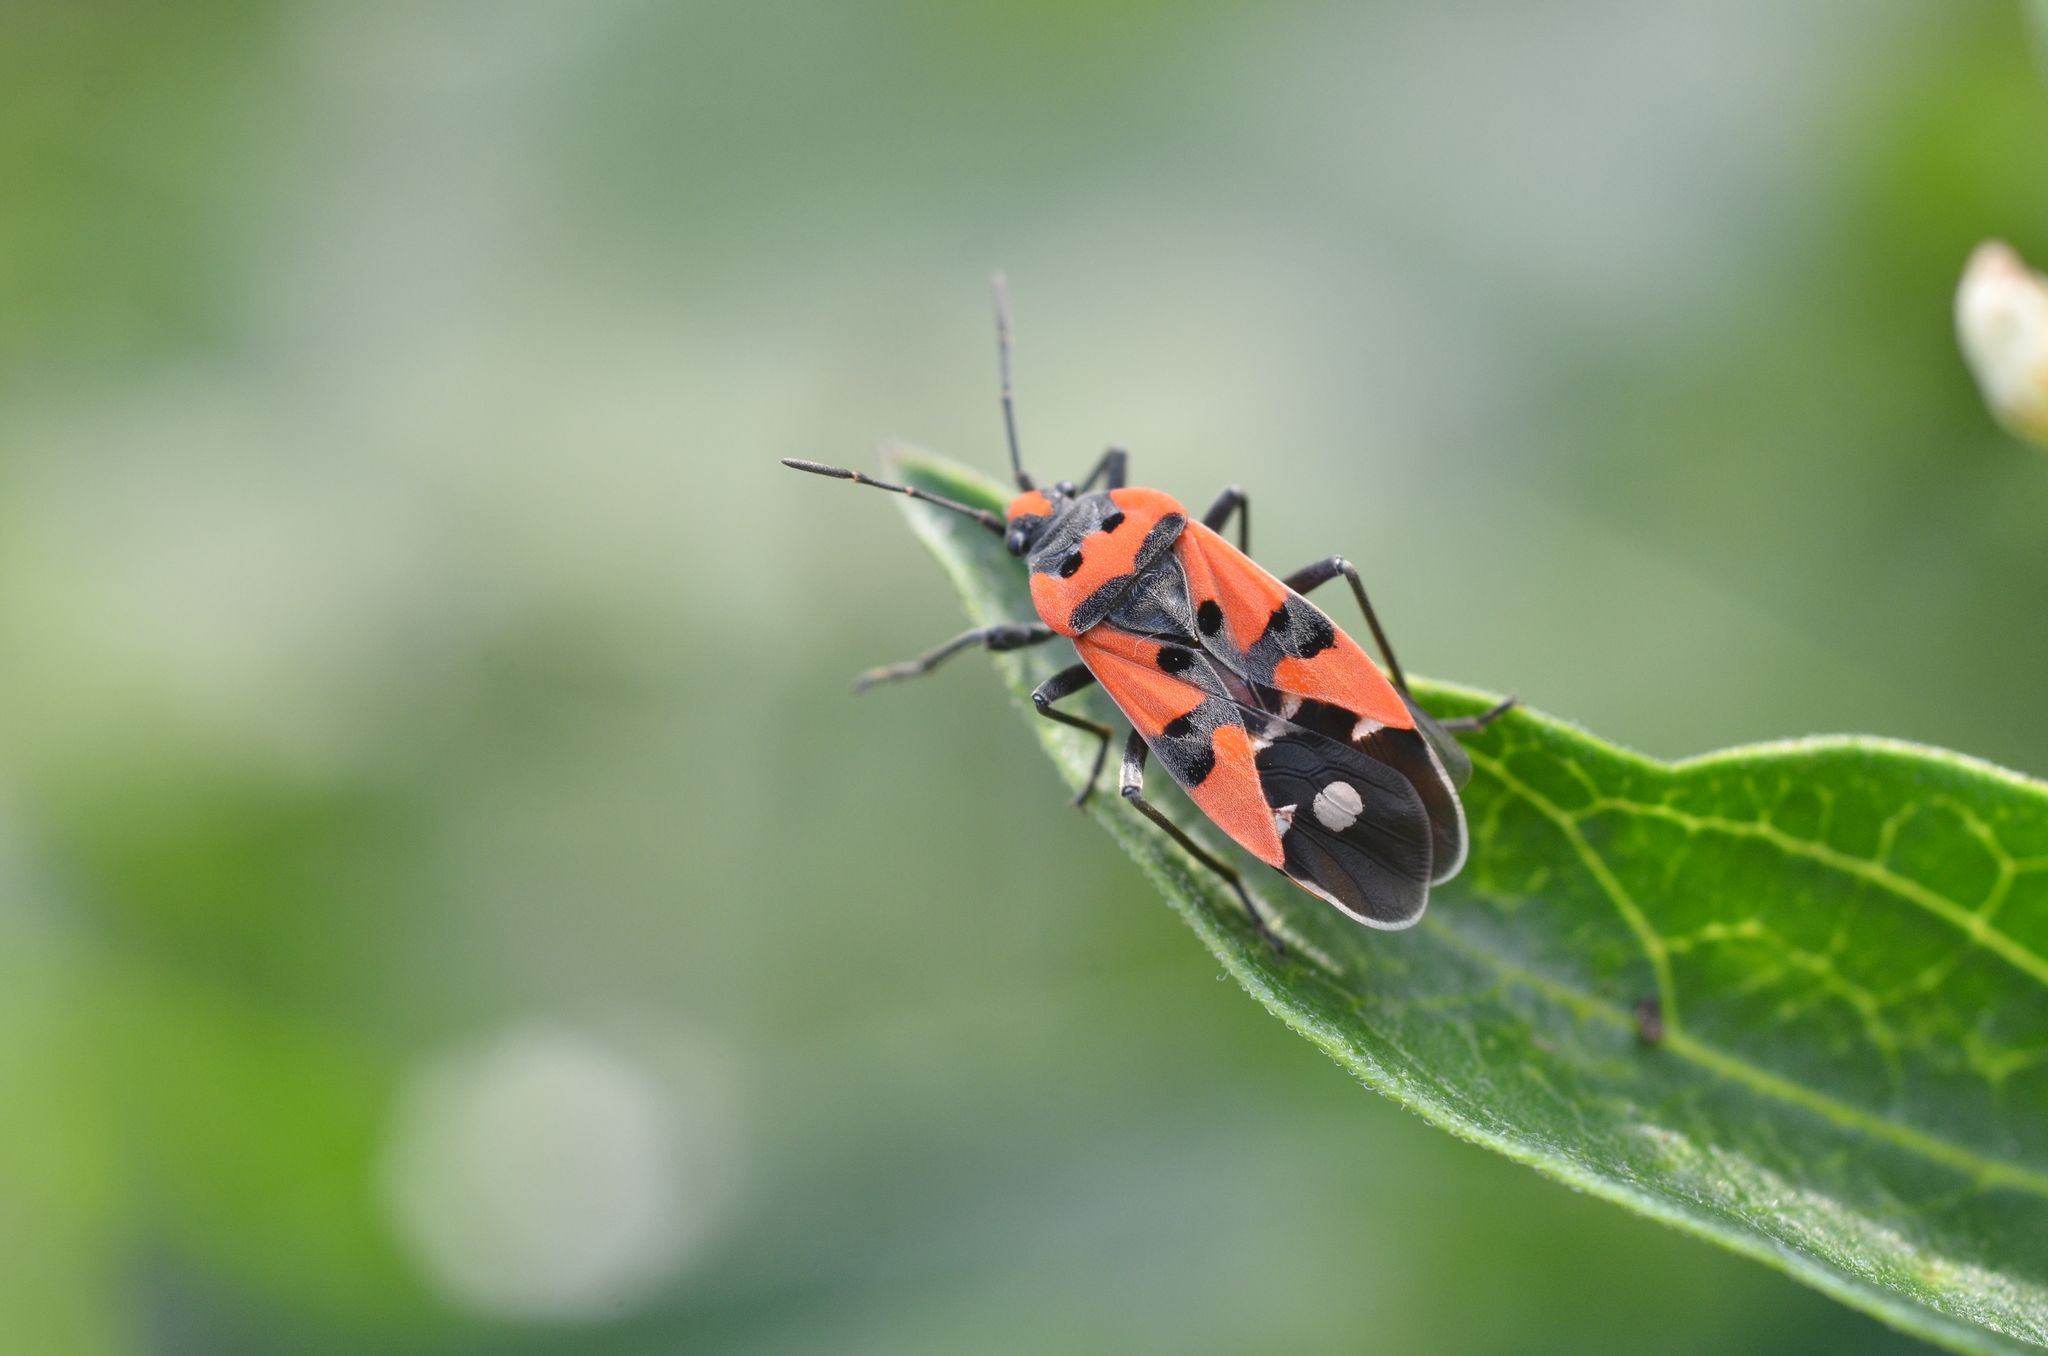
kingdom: Animalia
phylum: Arthropoda
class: Insecta
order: Hemiptera
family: Lygaeidae
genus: Lygaeus
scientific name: Lygaeus equestris
